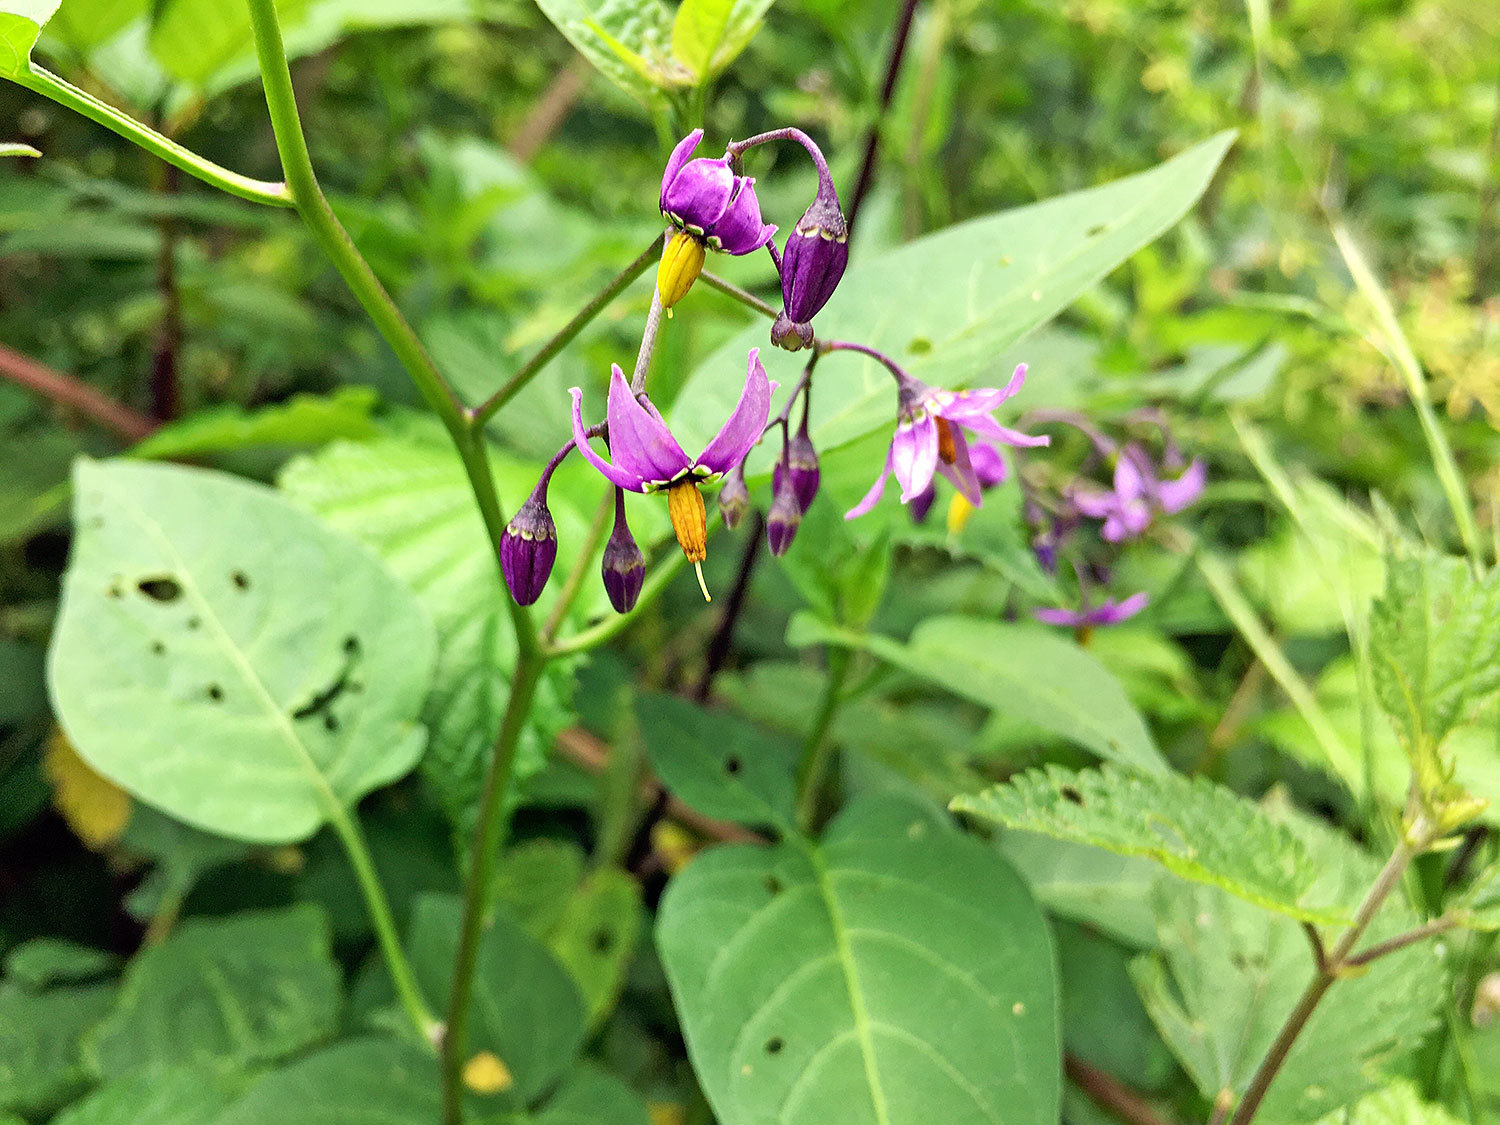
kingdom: Plantae
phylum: Tracheophyta
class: Magnoliopsida
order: Solanales
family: Solanaceae
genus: Solanum
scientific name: Solanum dulcamara
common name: Climbing nightshade
